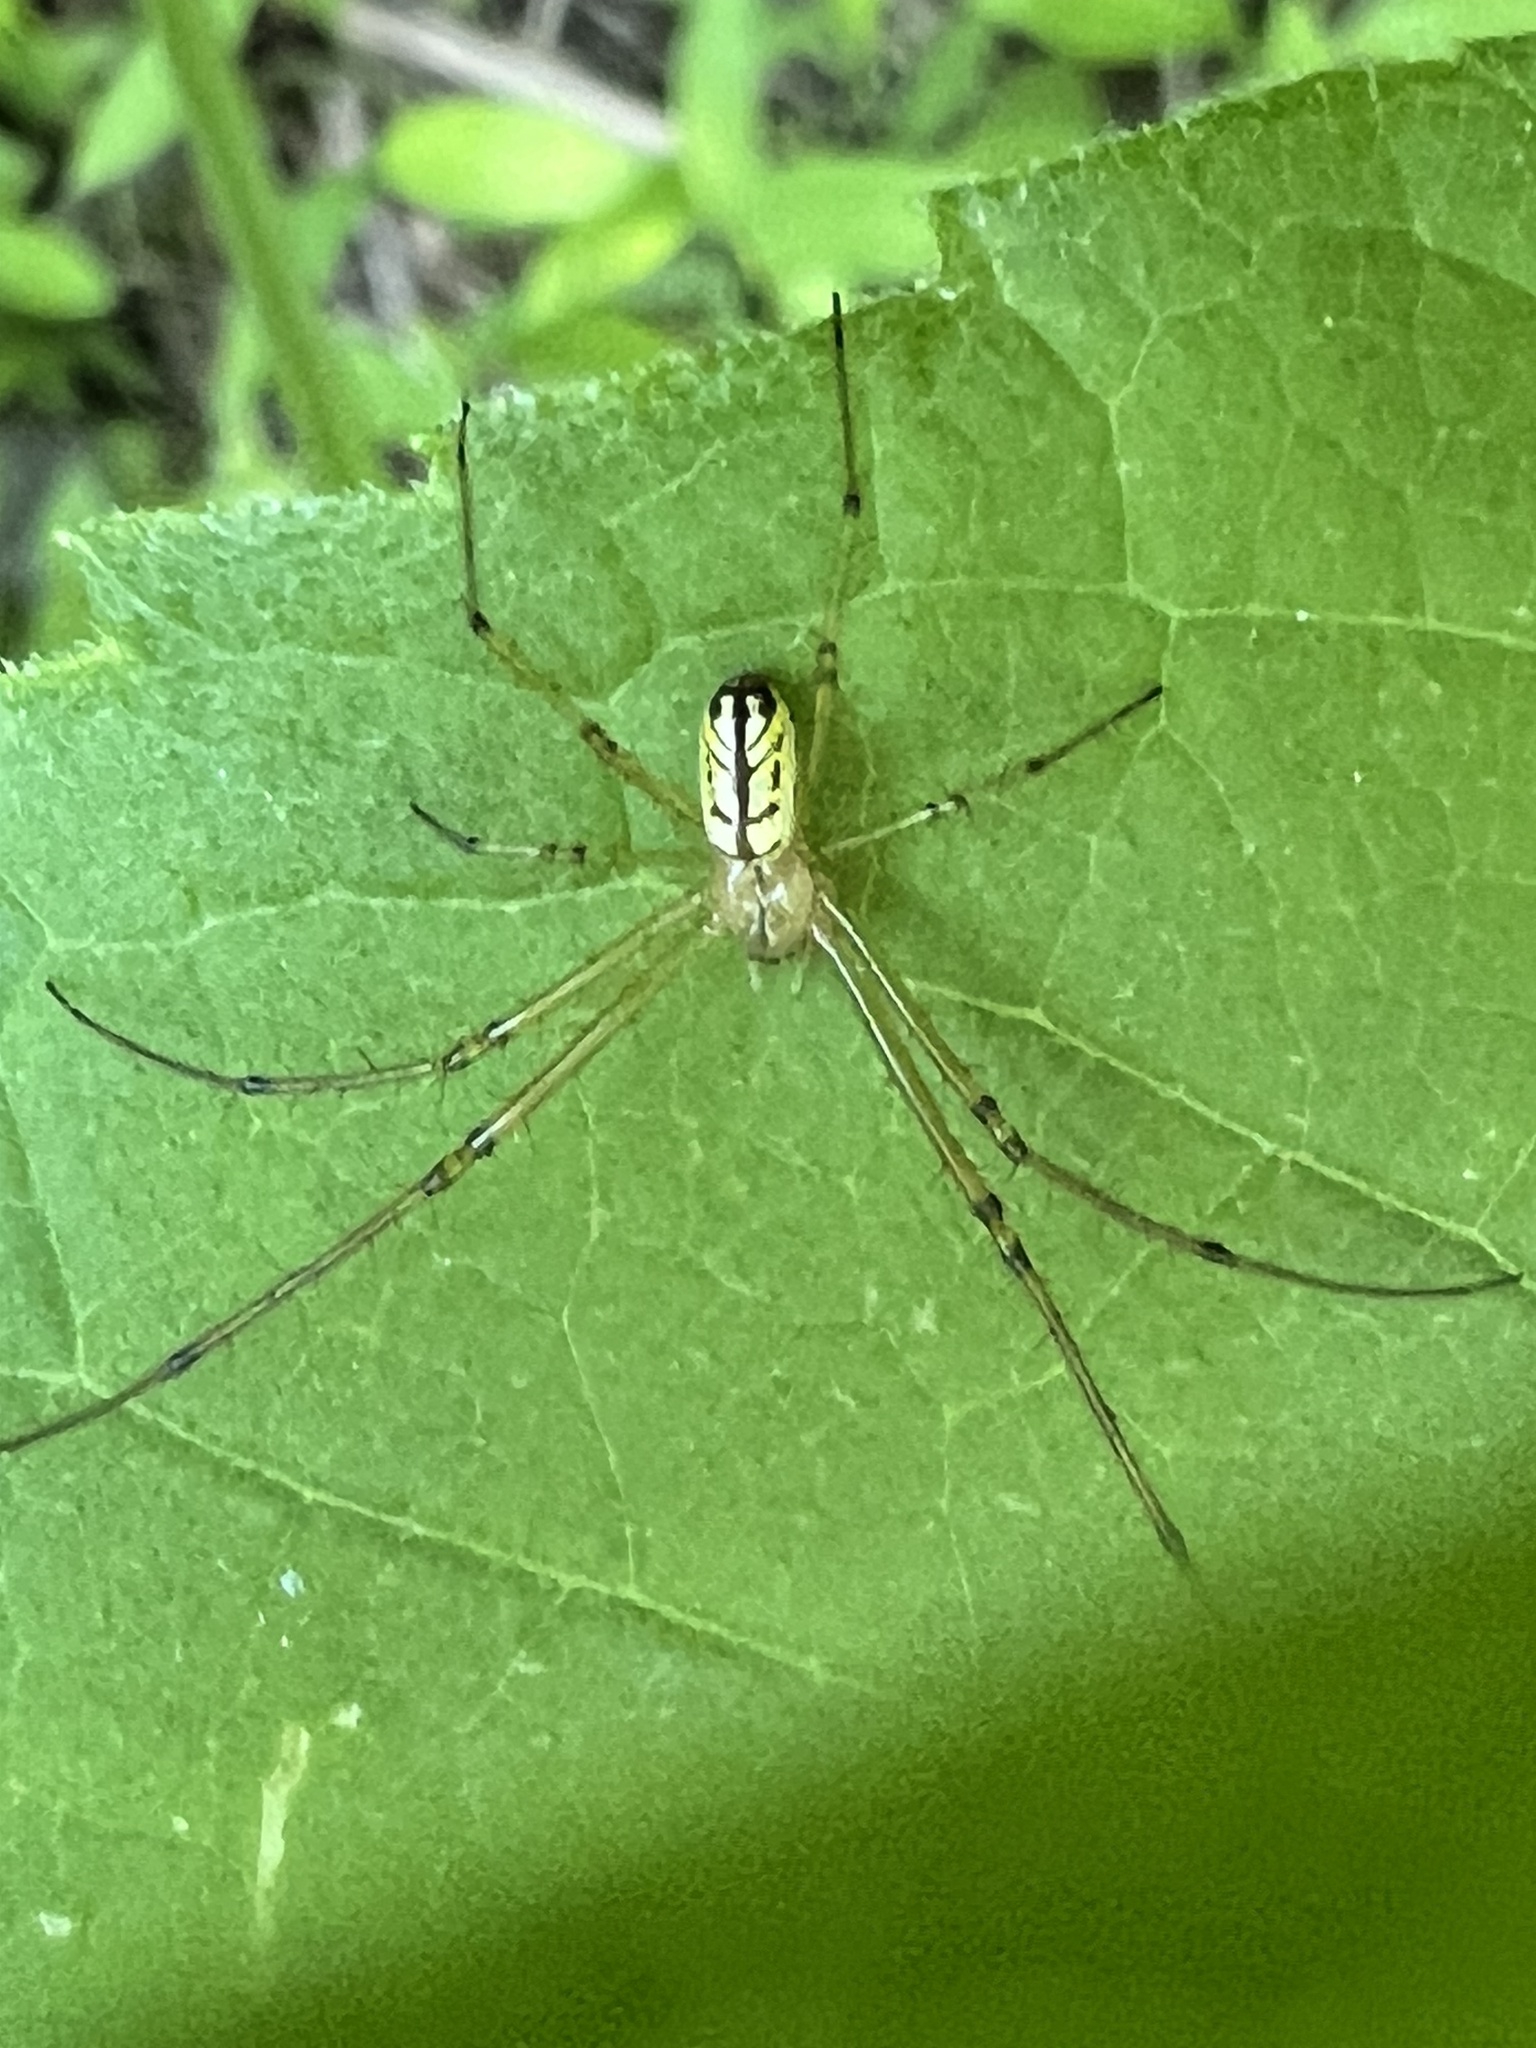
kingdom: Animalia
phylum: Arthropoda
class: Arachnida
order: Araneae
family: Tetragnathidae
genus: Leucauge
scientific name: Leucauge venusta
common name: Longjawed orb weavers
